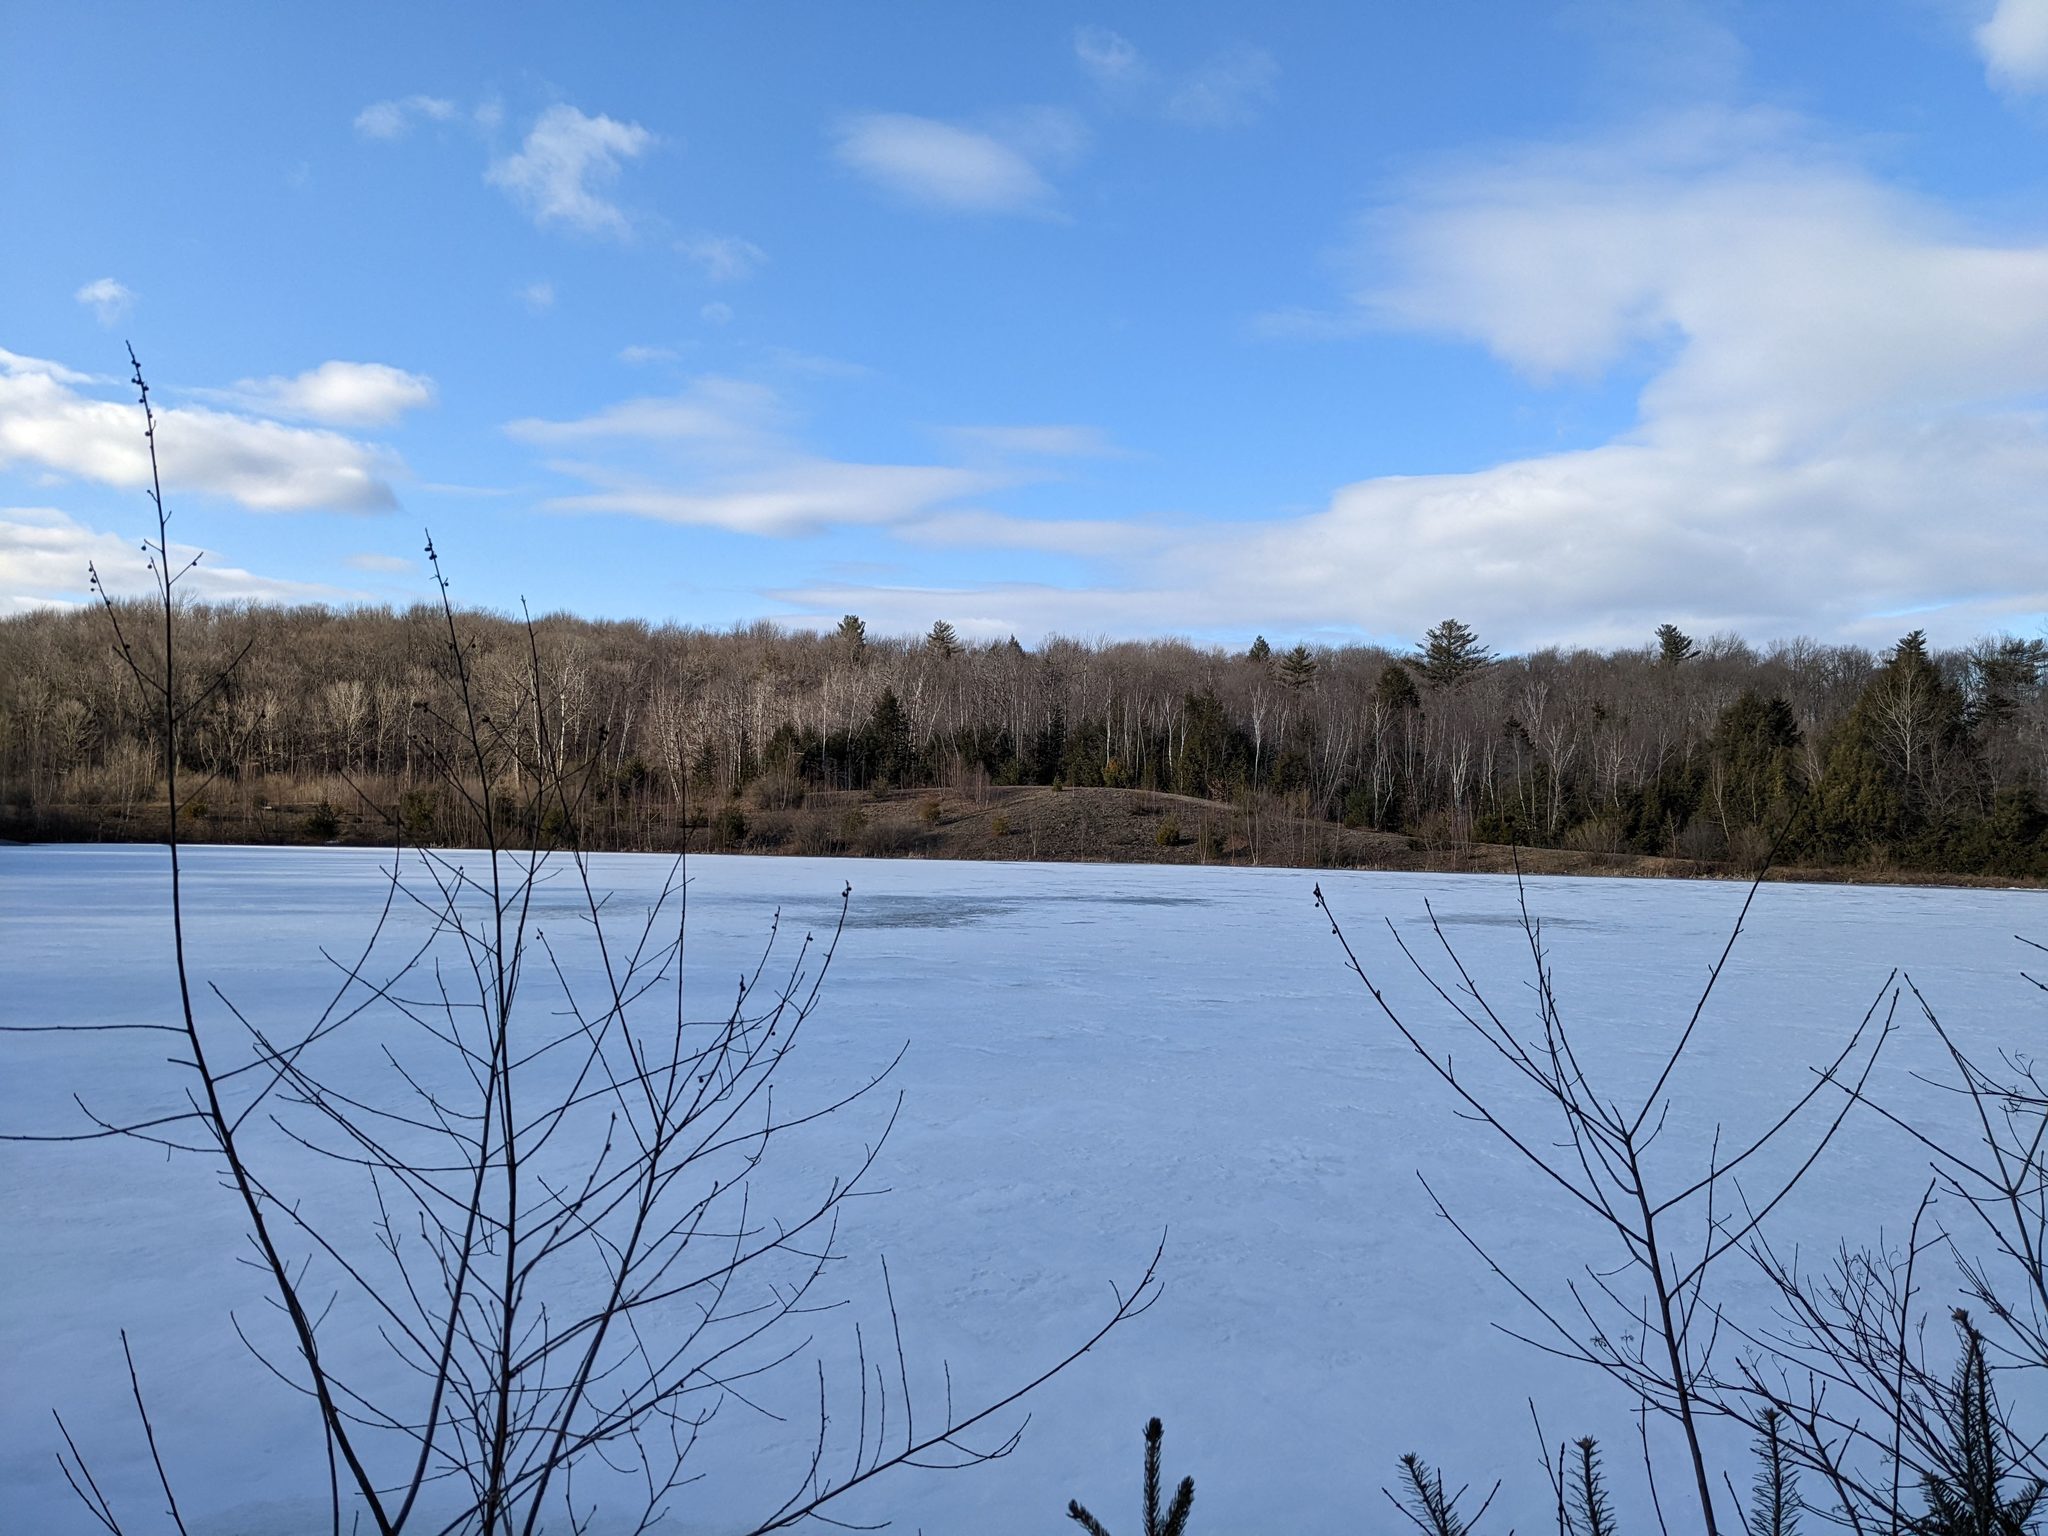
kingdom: Plantae
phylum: Tracheophyta
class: Pinopsida
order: Pinales
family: Pinaceae
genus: Pinus
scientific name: Pinus strobus
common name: Weymouth pine
